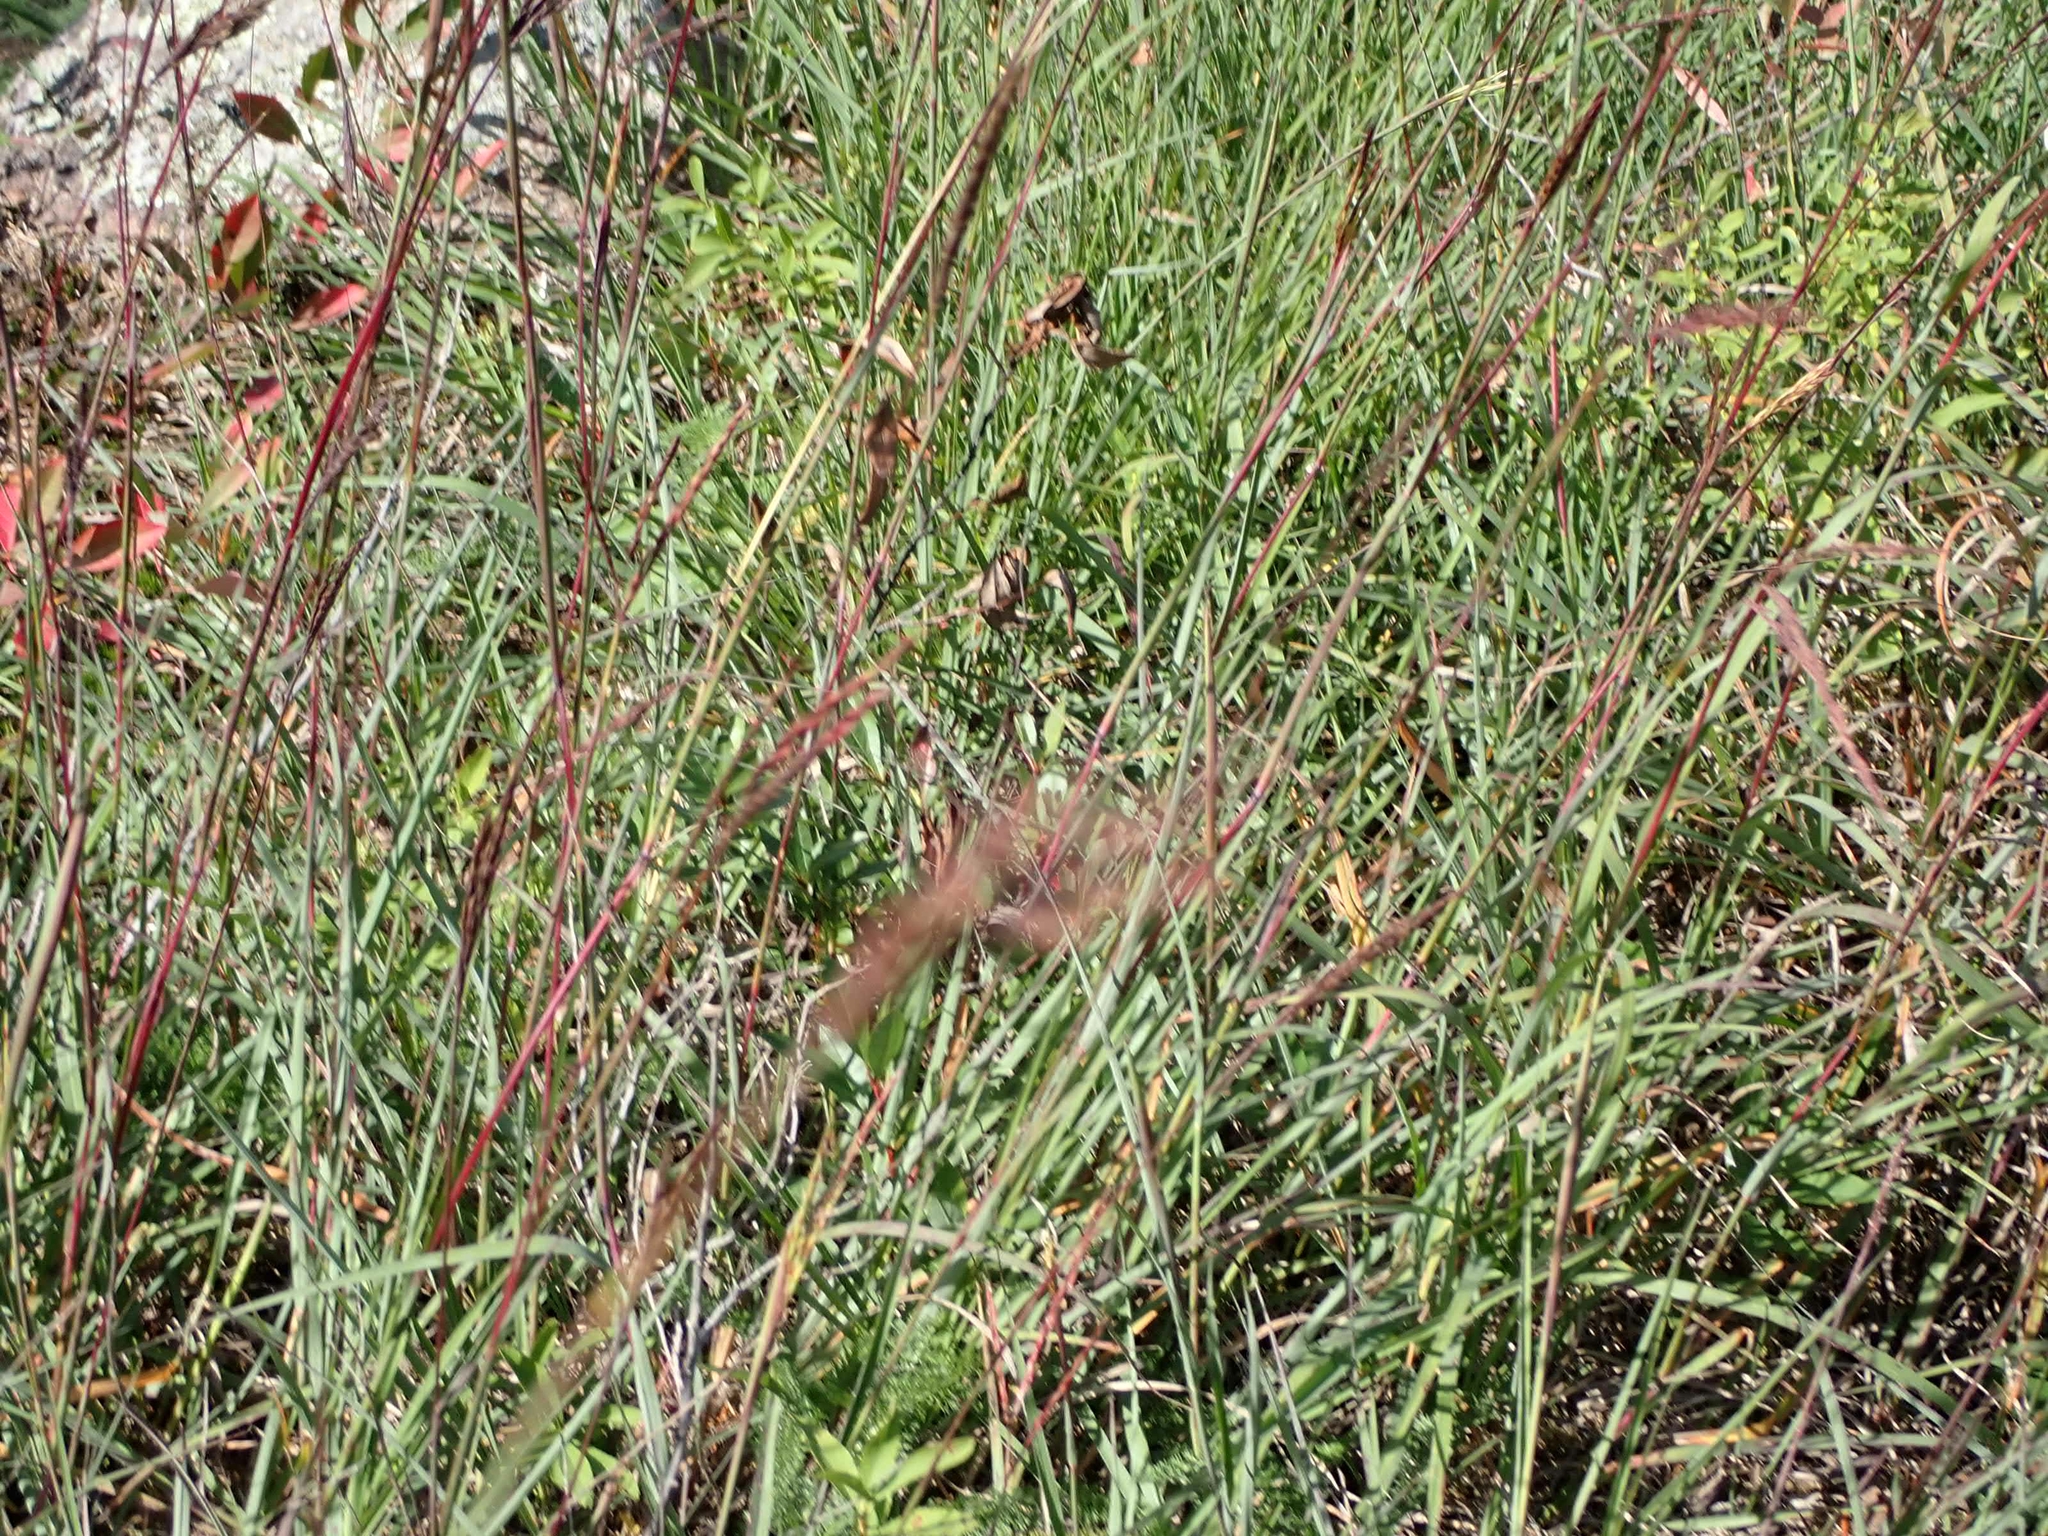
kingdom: Plantae
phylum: Tracheophyta
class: Liliopsida
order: Poales
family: Poaceae
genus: Andropogon
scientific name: Andropogon gerardi
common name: Big bluestem
